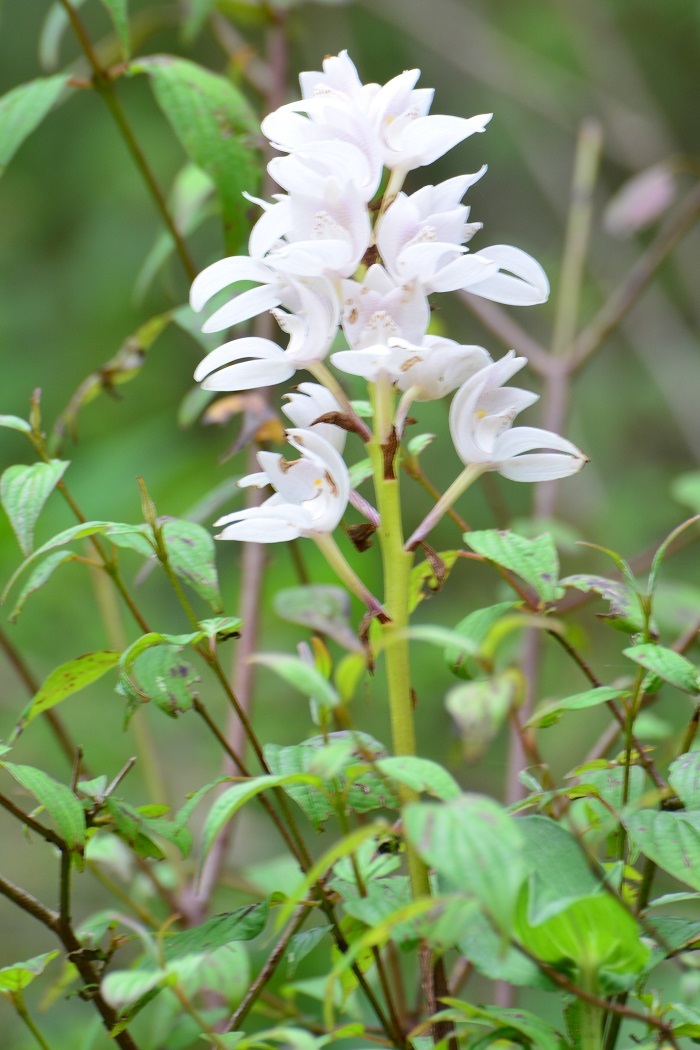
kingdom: Plantae
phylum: Tracheophyta
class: Liliopsida
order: Asparagales
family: Orchidaceae
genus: Govenia
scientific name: Govenia liliacea
